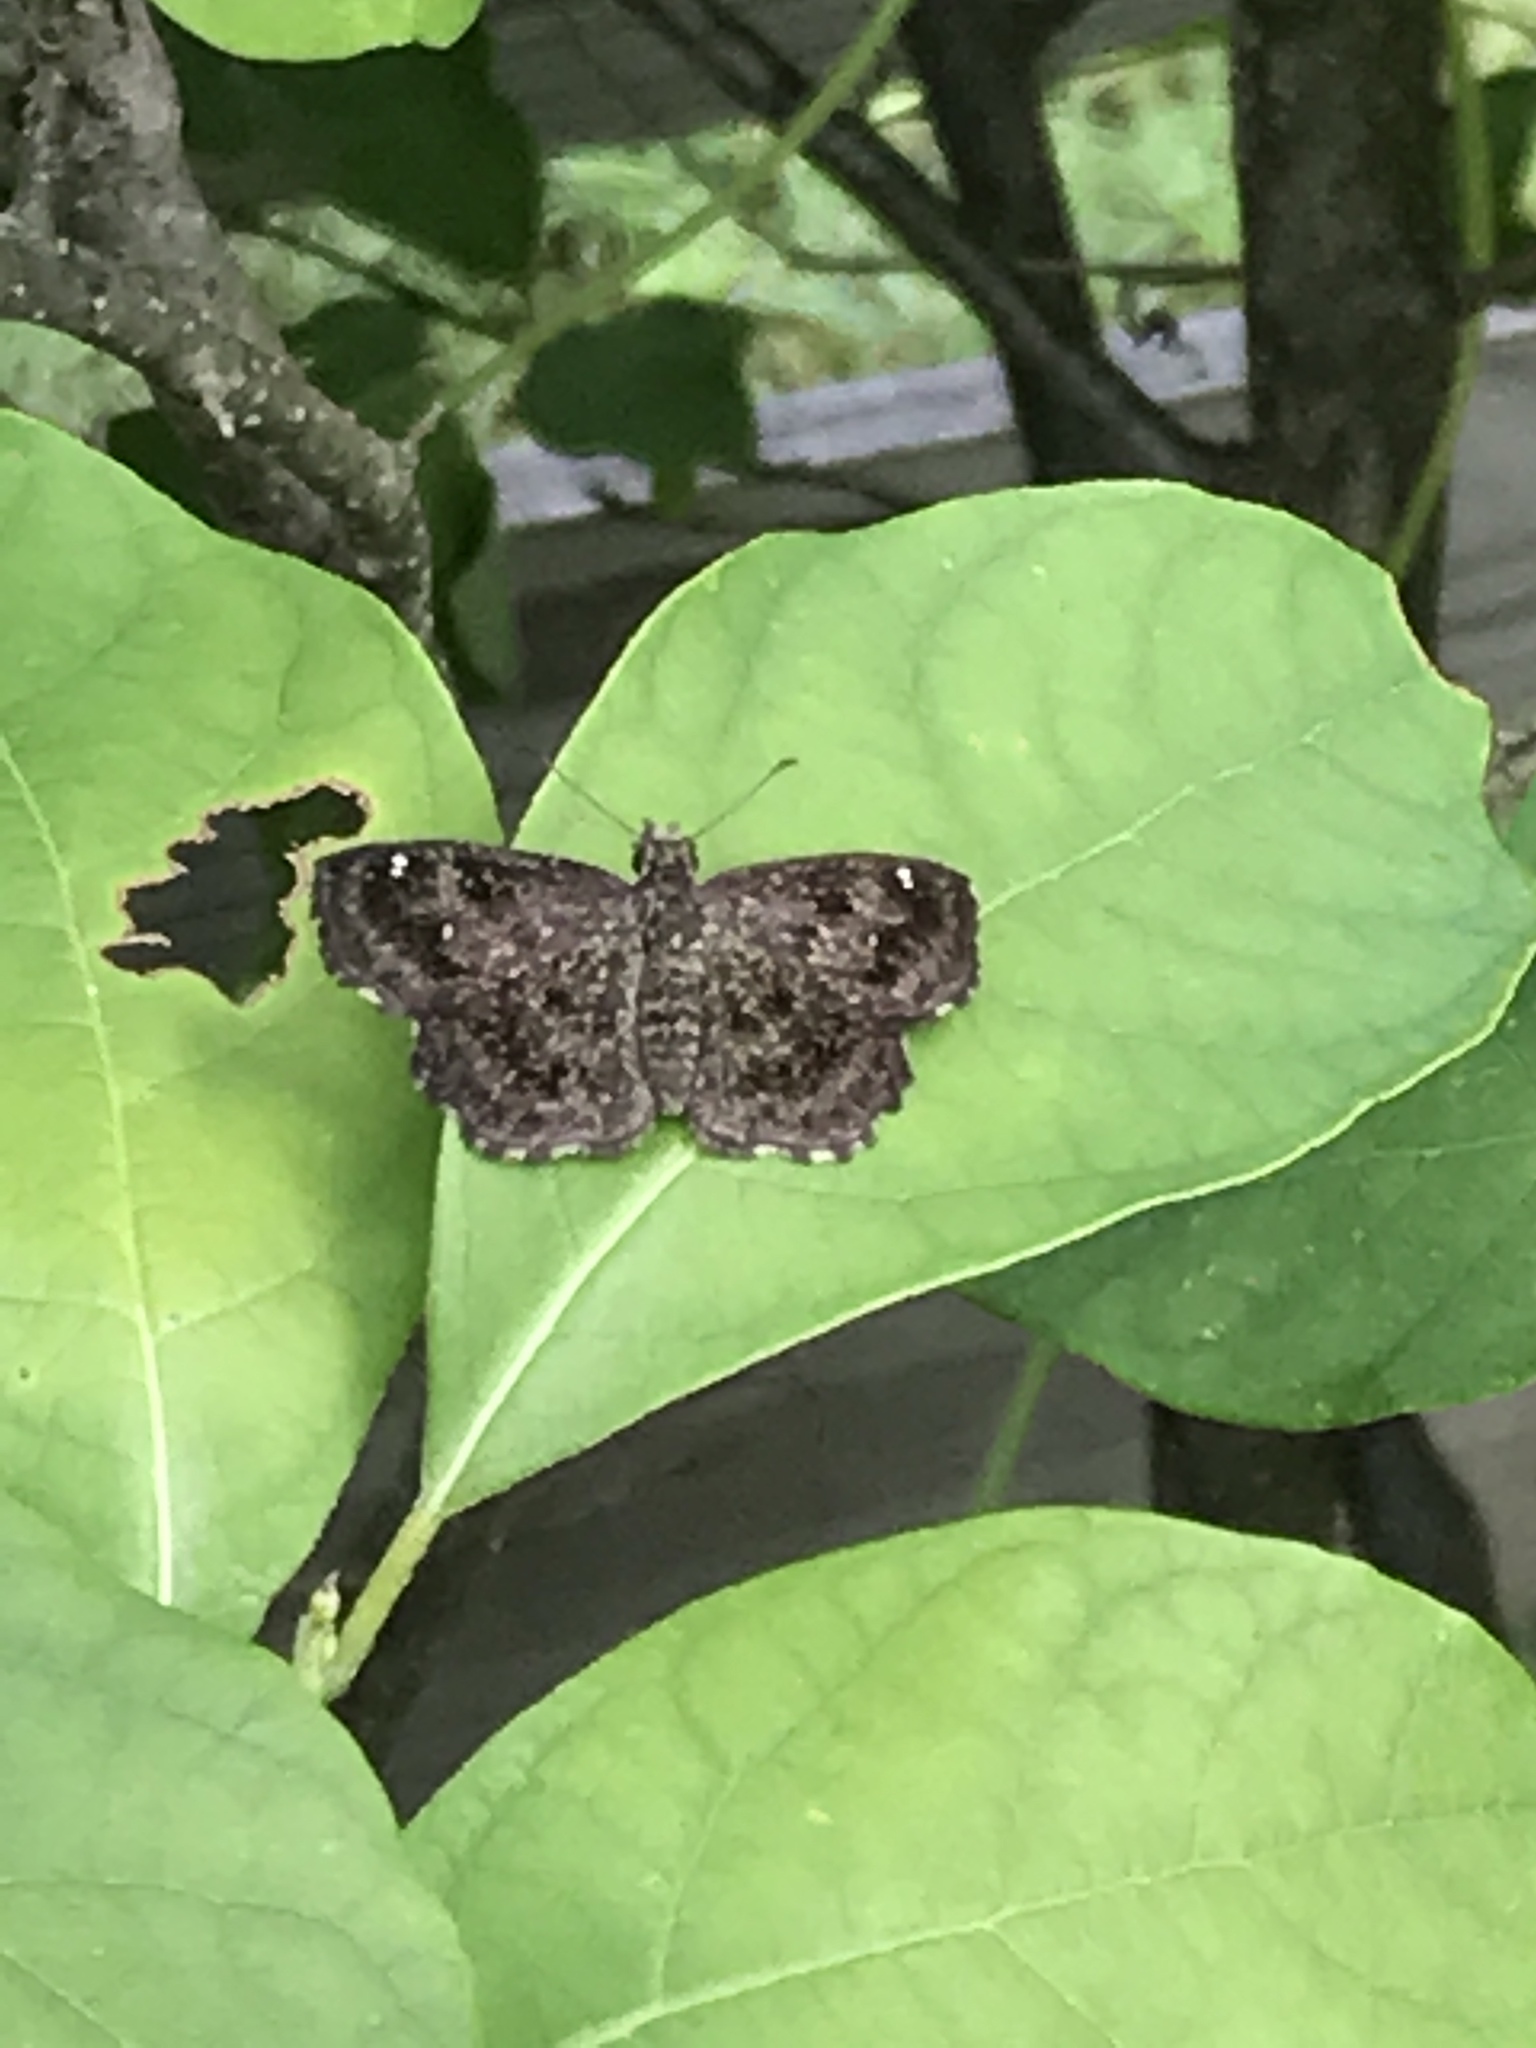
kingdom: Animalia
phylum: Arthropoda
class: Insecta
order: Lepidoptera
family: Hesperiidae
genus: Staphylus
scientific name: Staphylus mazans
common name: Mazans scallopwing
